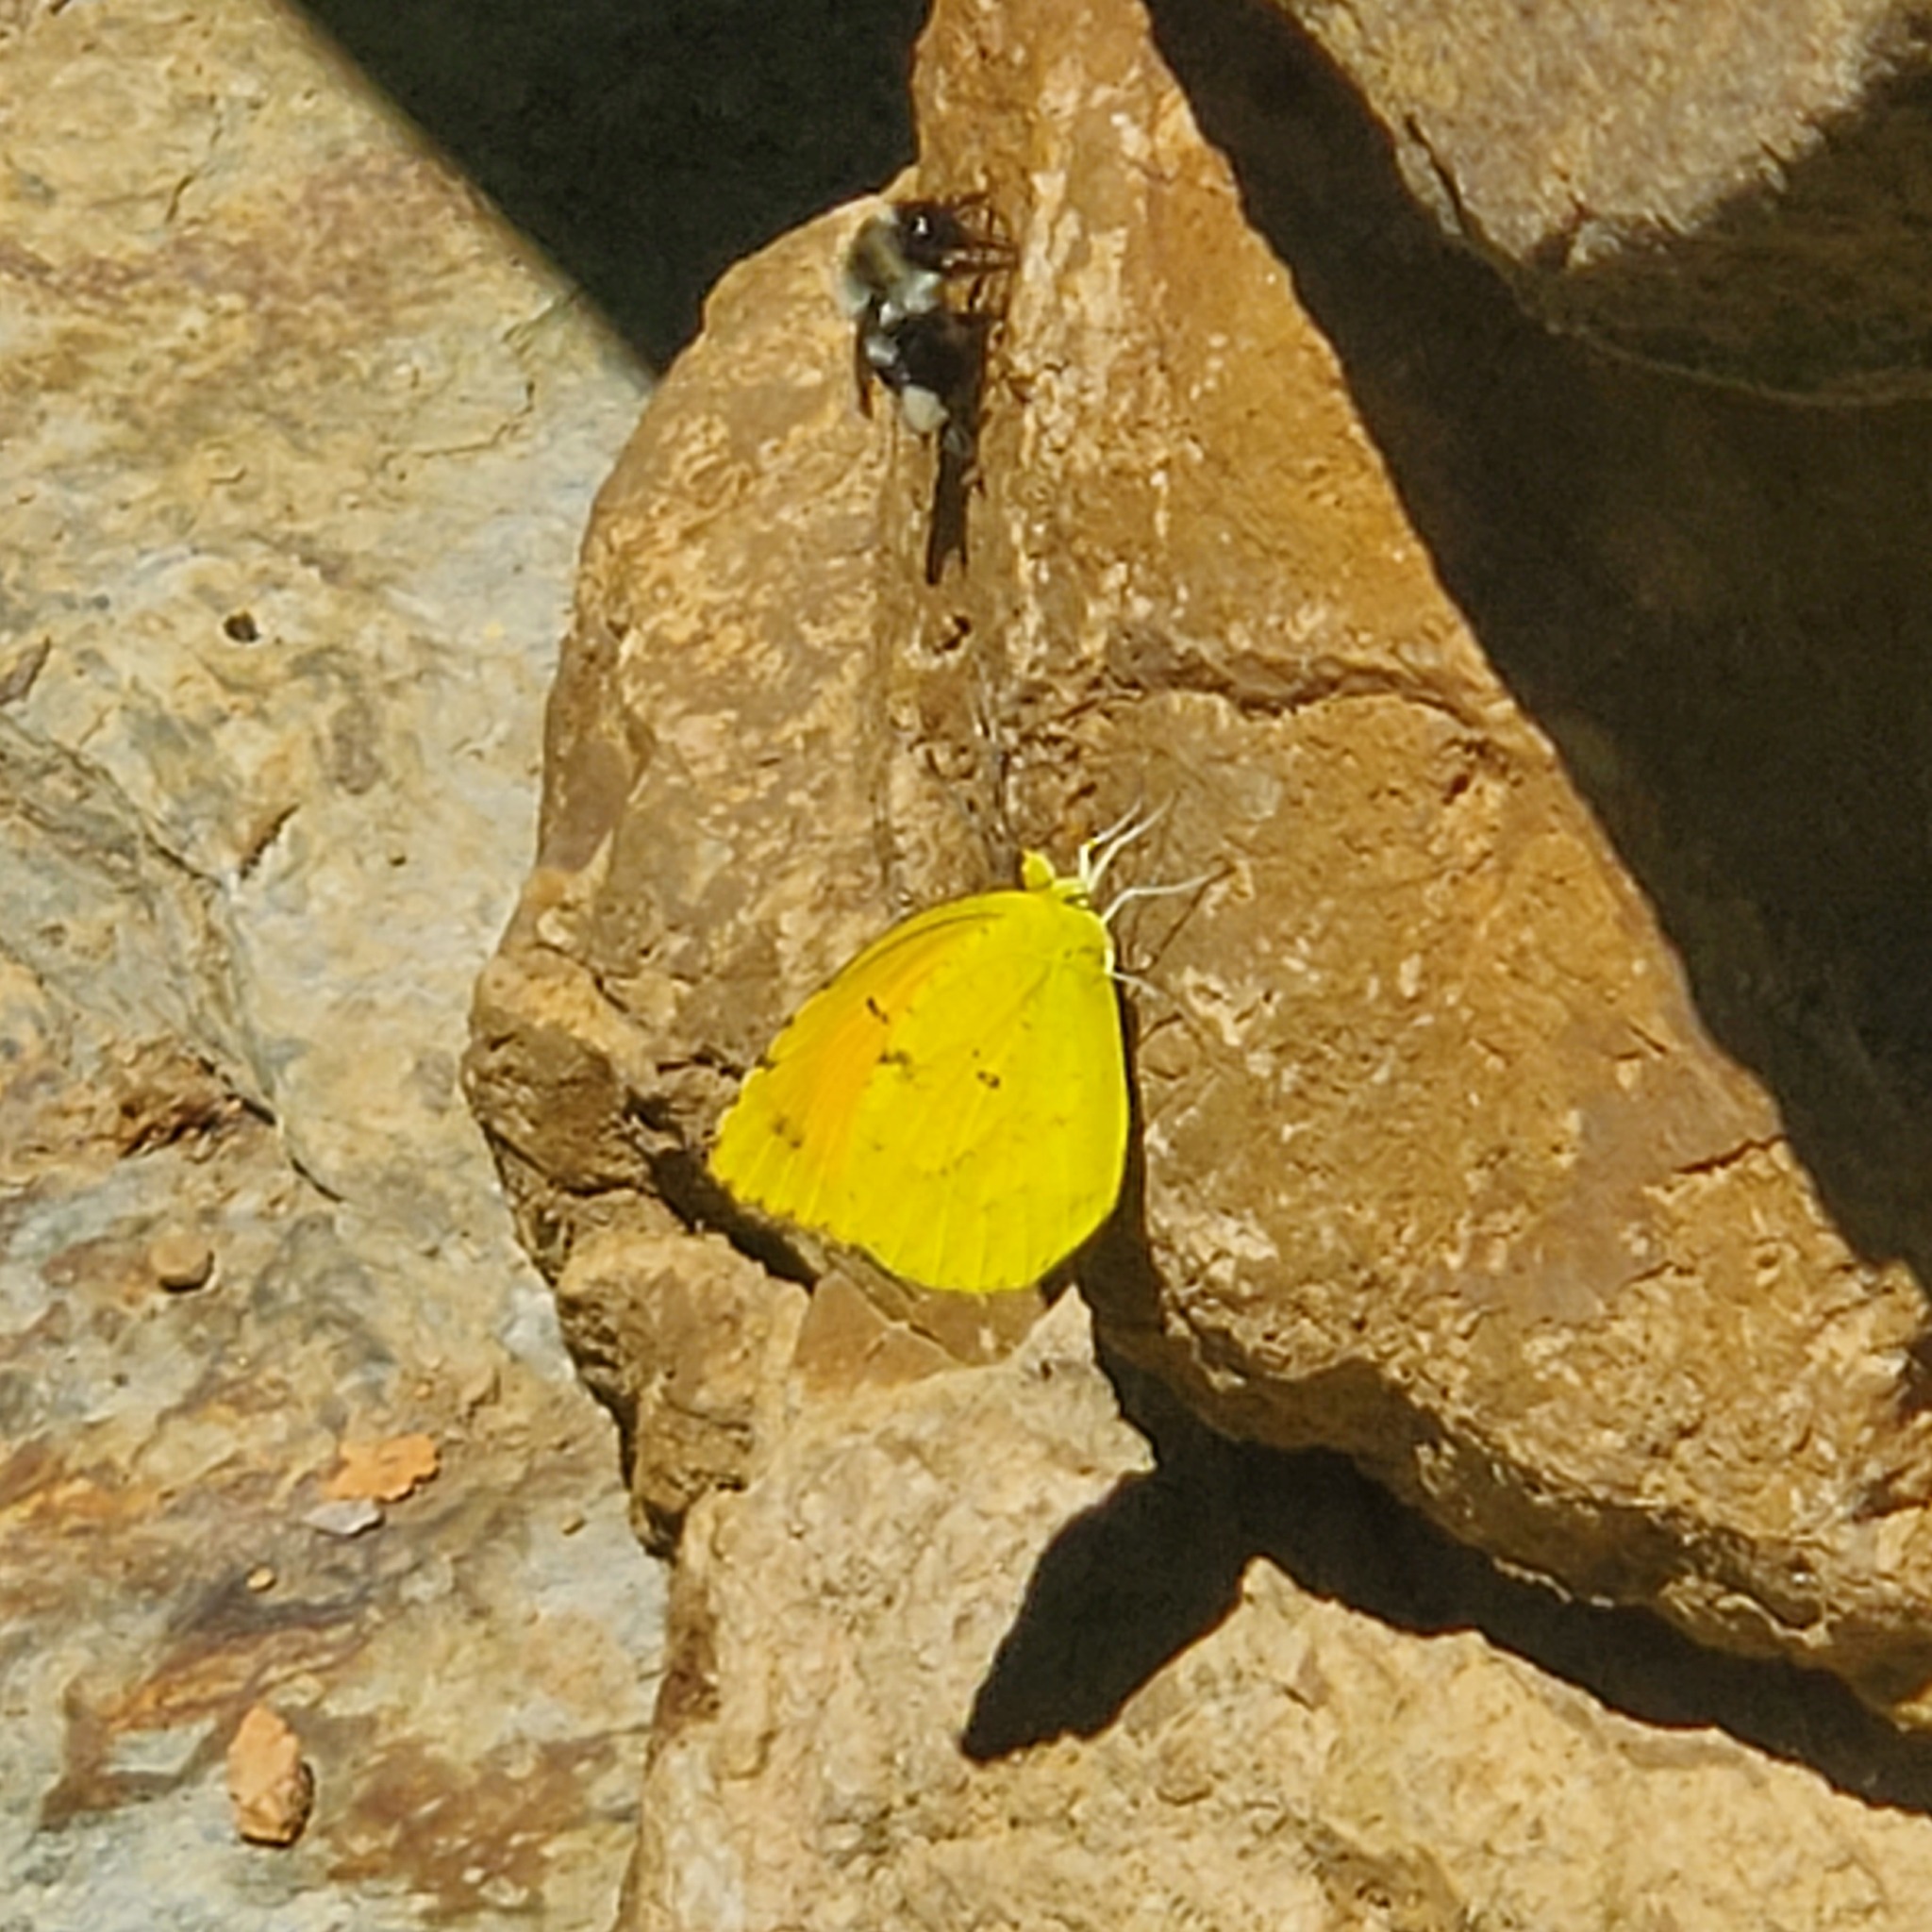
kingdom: Animalia
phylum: Arthropoda
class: Insecta
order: Lepidoptera
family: Pieridae
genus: Abaeis
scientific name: Abaeis nicippe
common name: Sleepy orange
